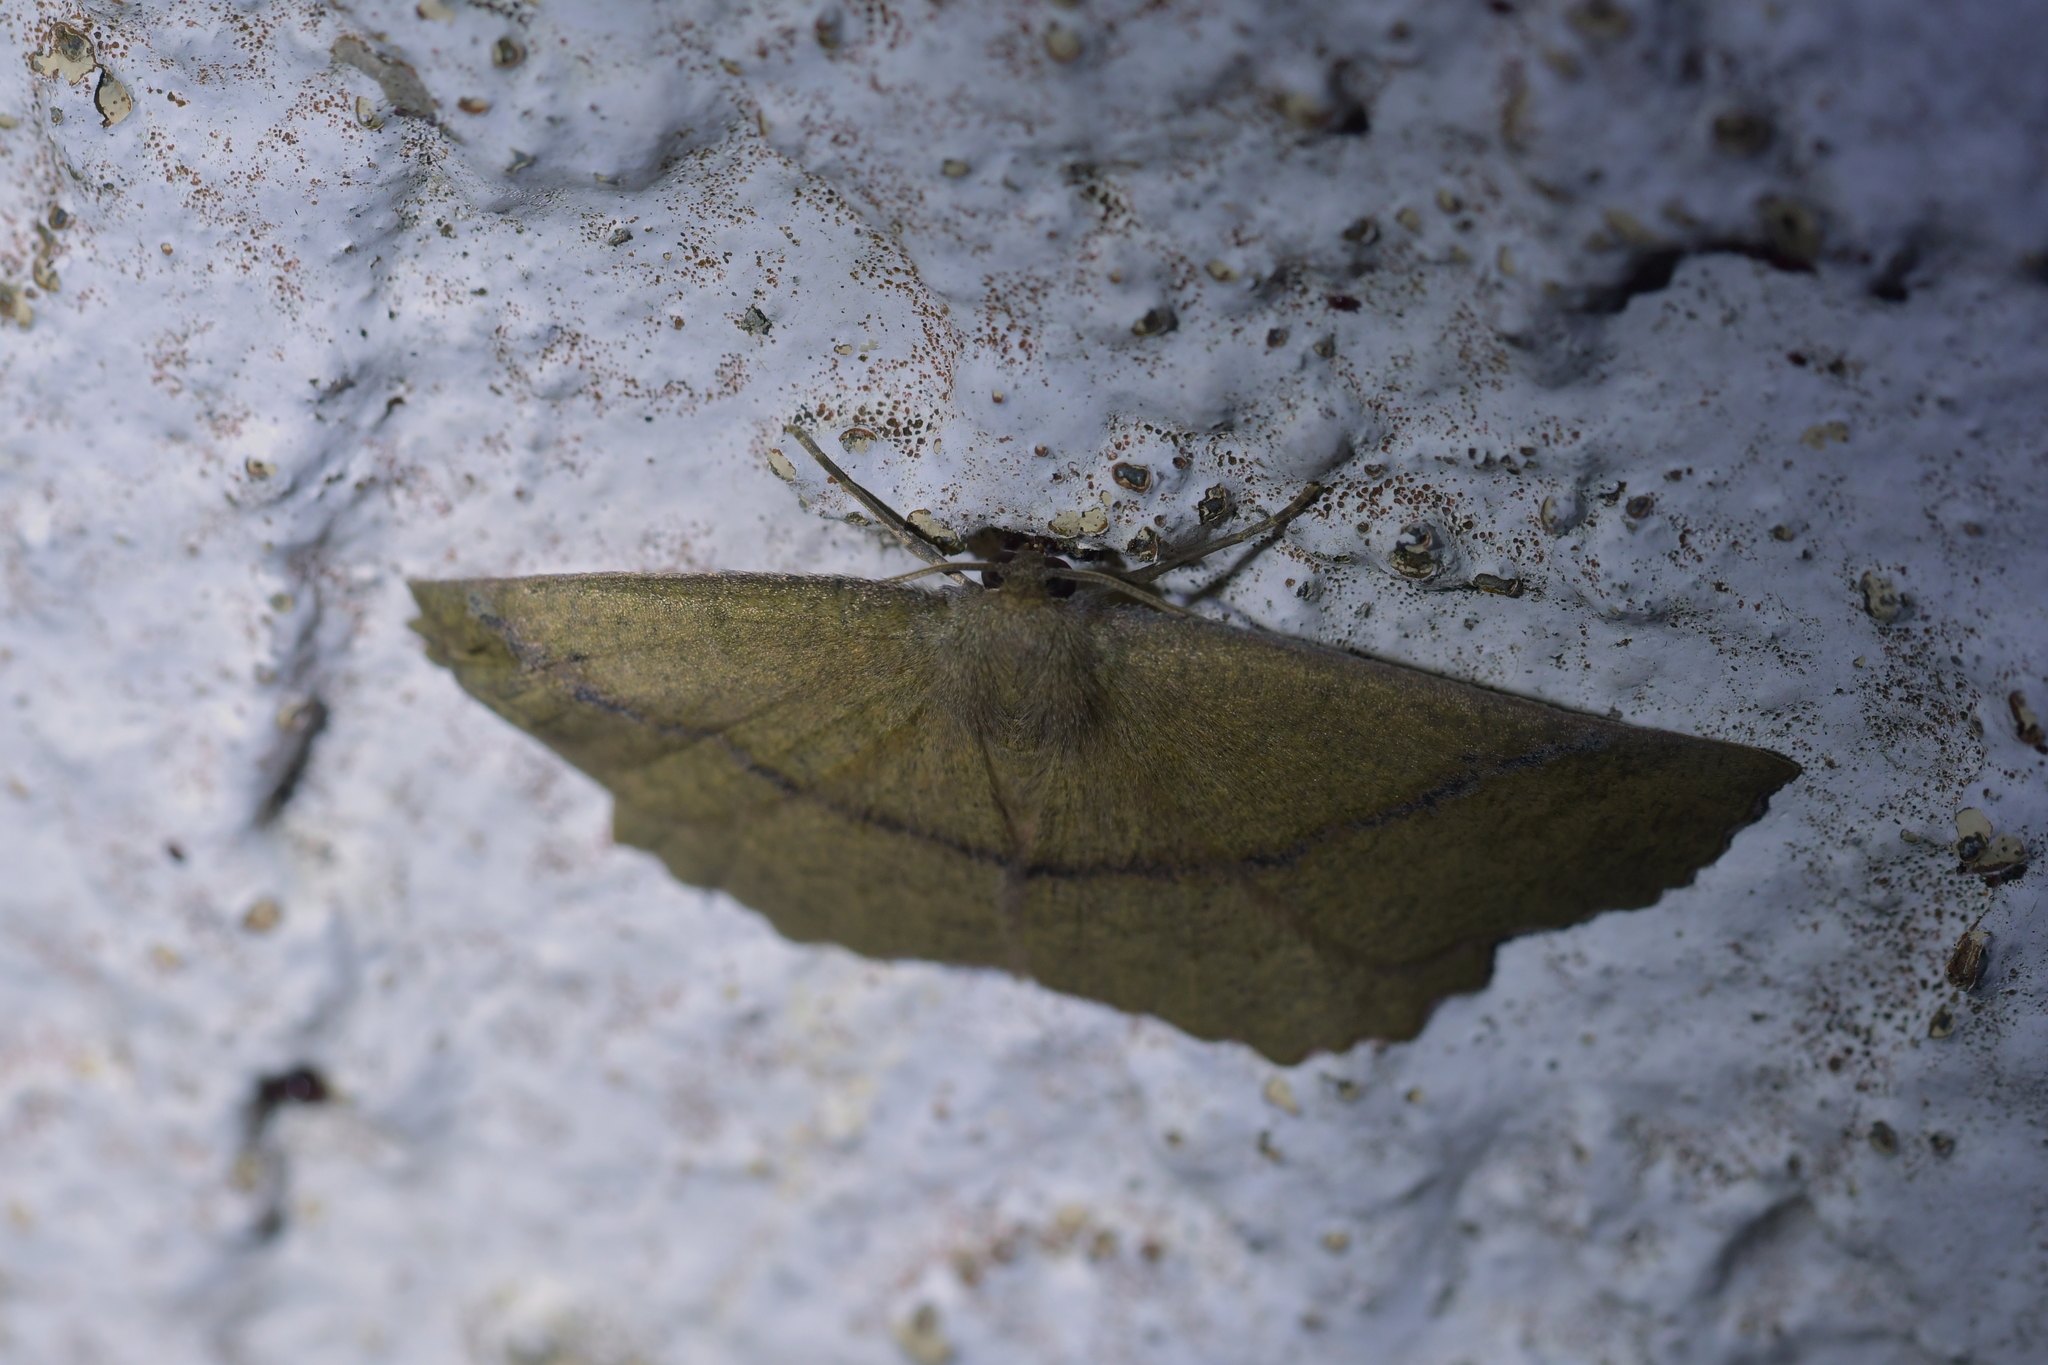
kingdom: Animalia
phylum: Arthropoda
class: Insecta
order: Lepidoptera
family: Geometridae
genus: Xyridacma
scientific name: Xyridacma ustaria
